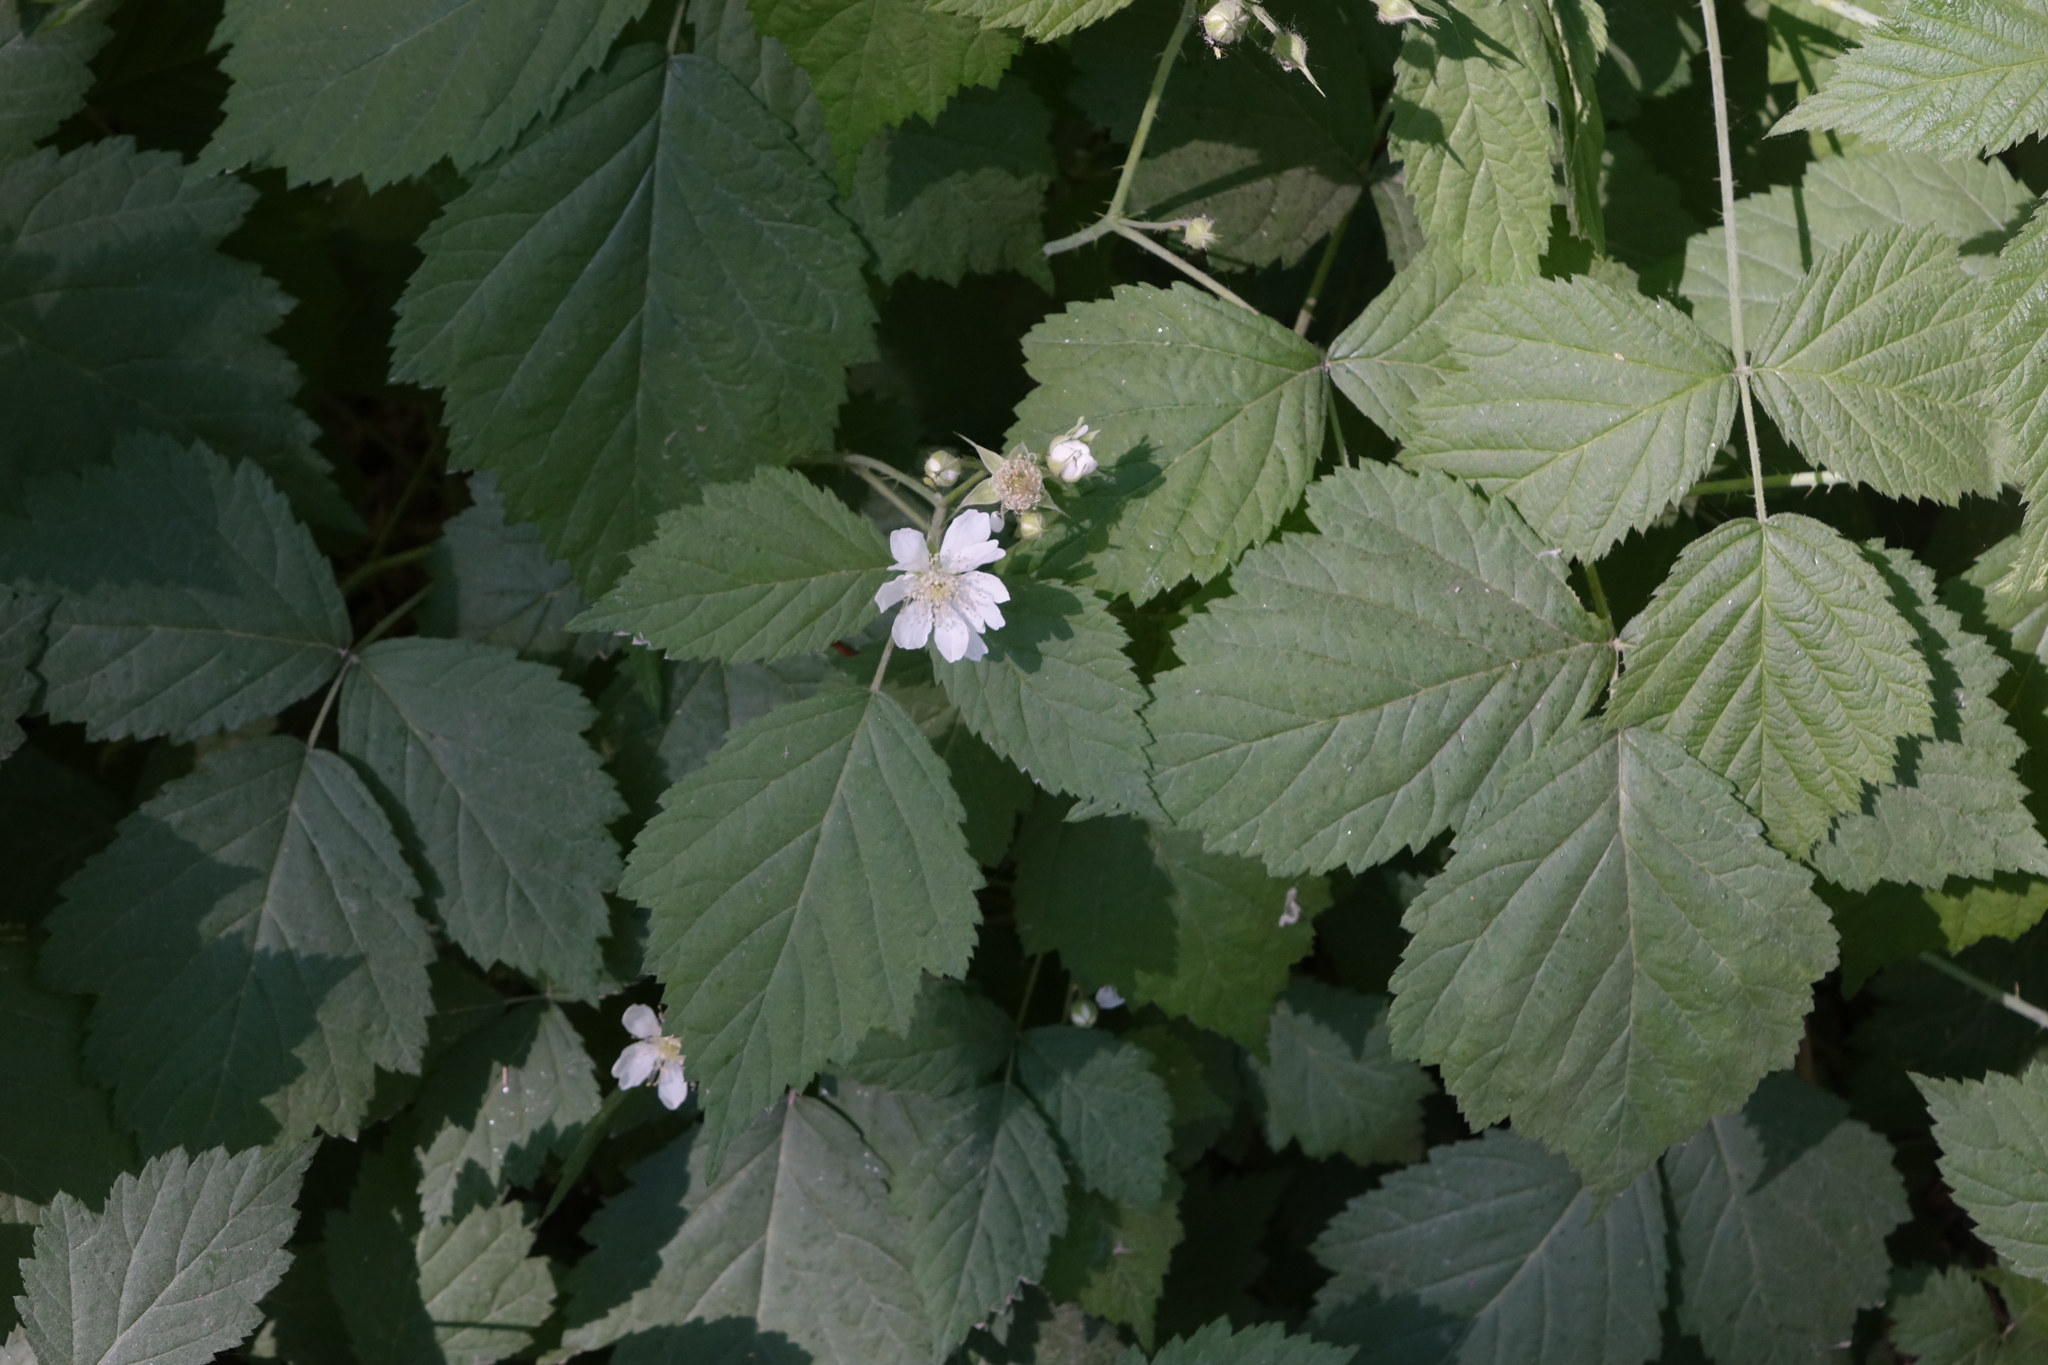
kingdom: Plantae
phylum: Tracheophyta
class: Magnoliopsida
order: Rosales
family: Rosaceae
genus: Rubus
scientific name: Rubus caesius
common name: Dewberry
